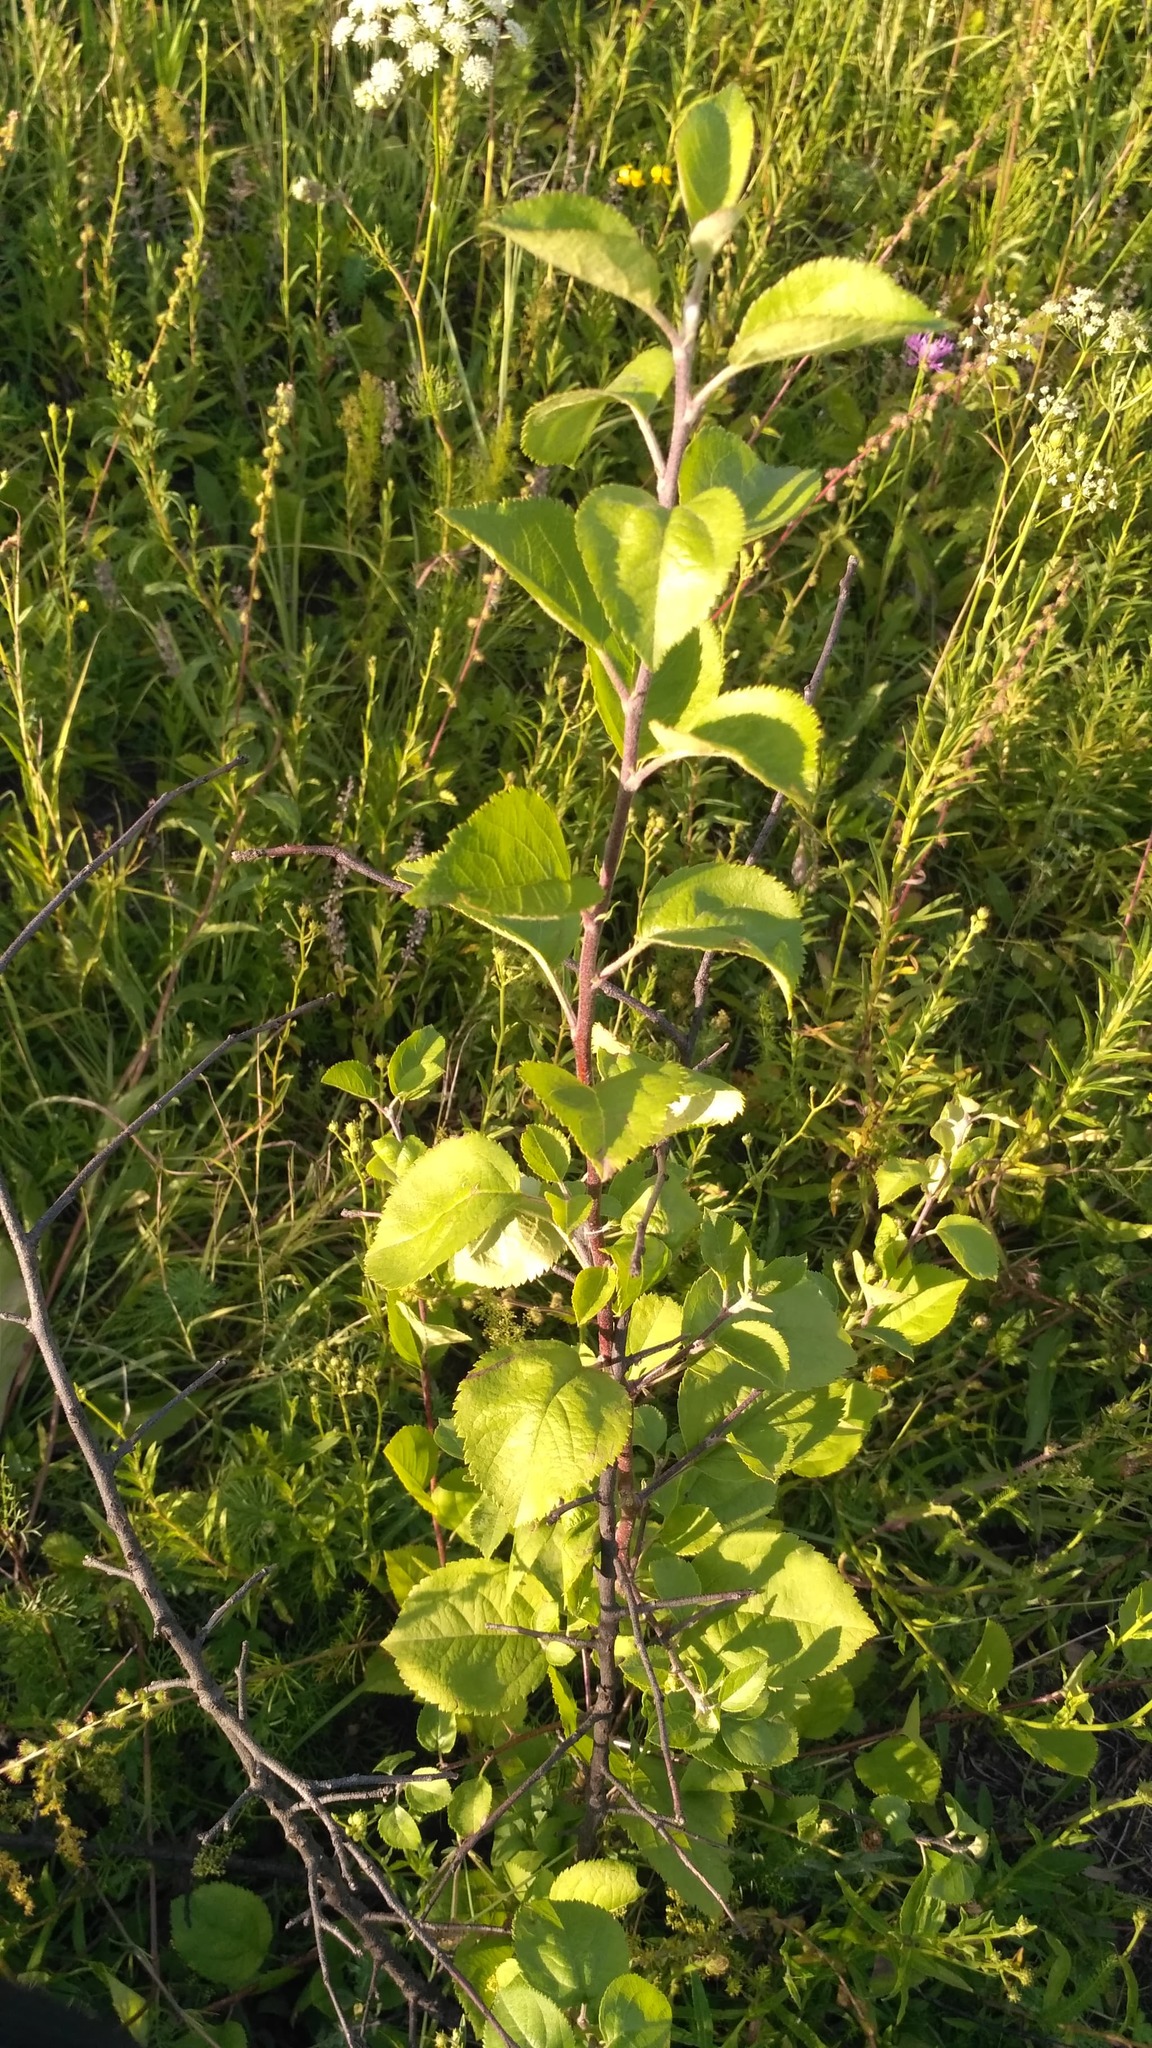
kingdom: Plantae
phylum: Tracheophyta
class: Magnoliopsida
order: Rosales
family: Rosaceae
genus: Malus
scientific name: Malus domestica
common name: Apple
